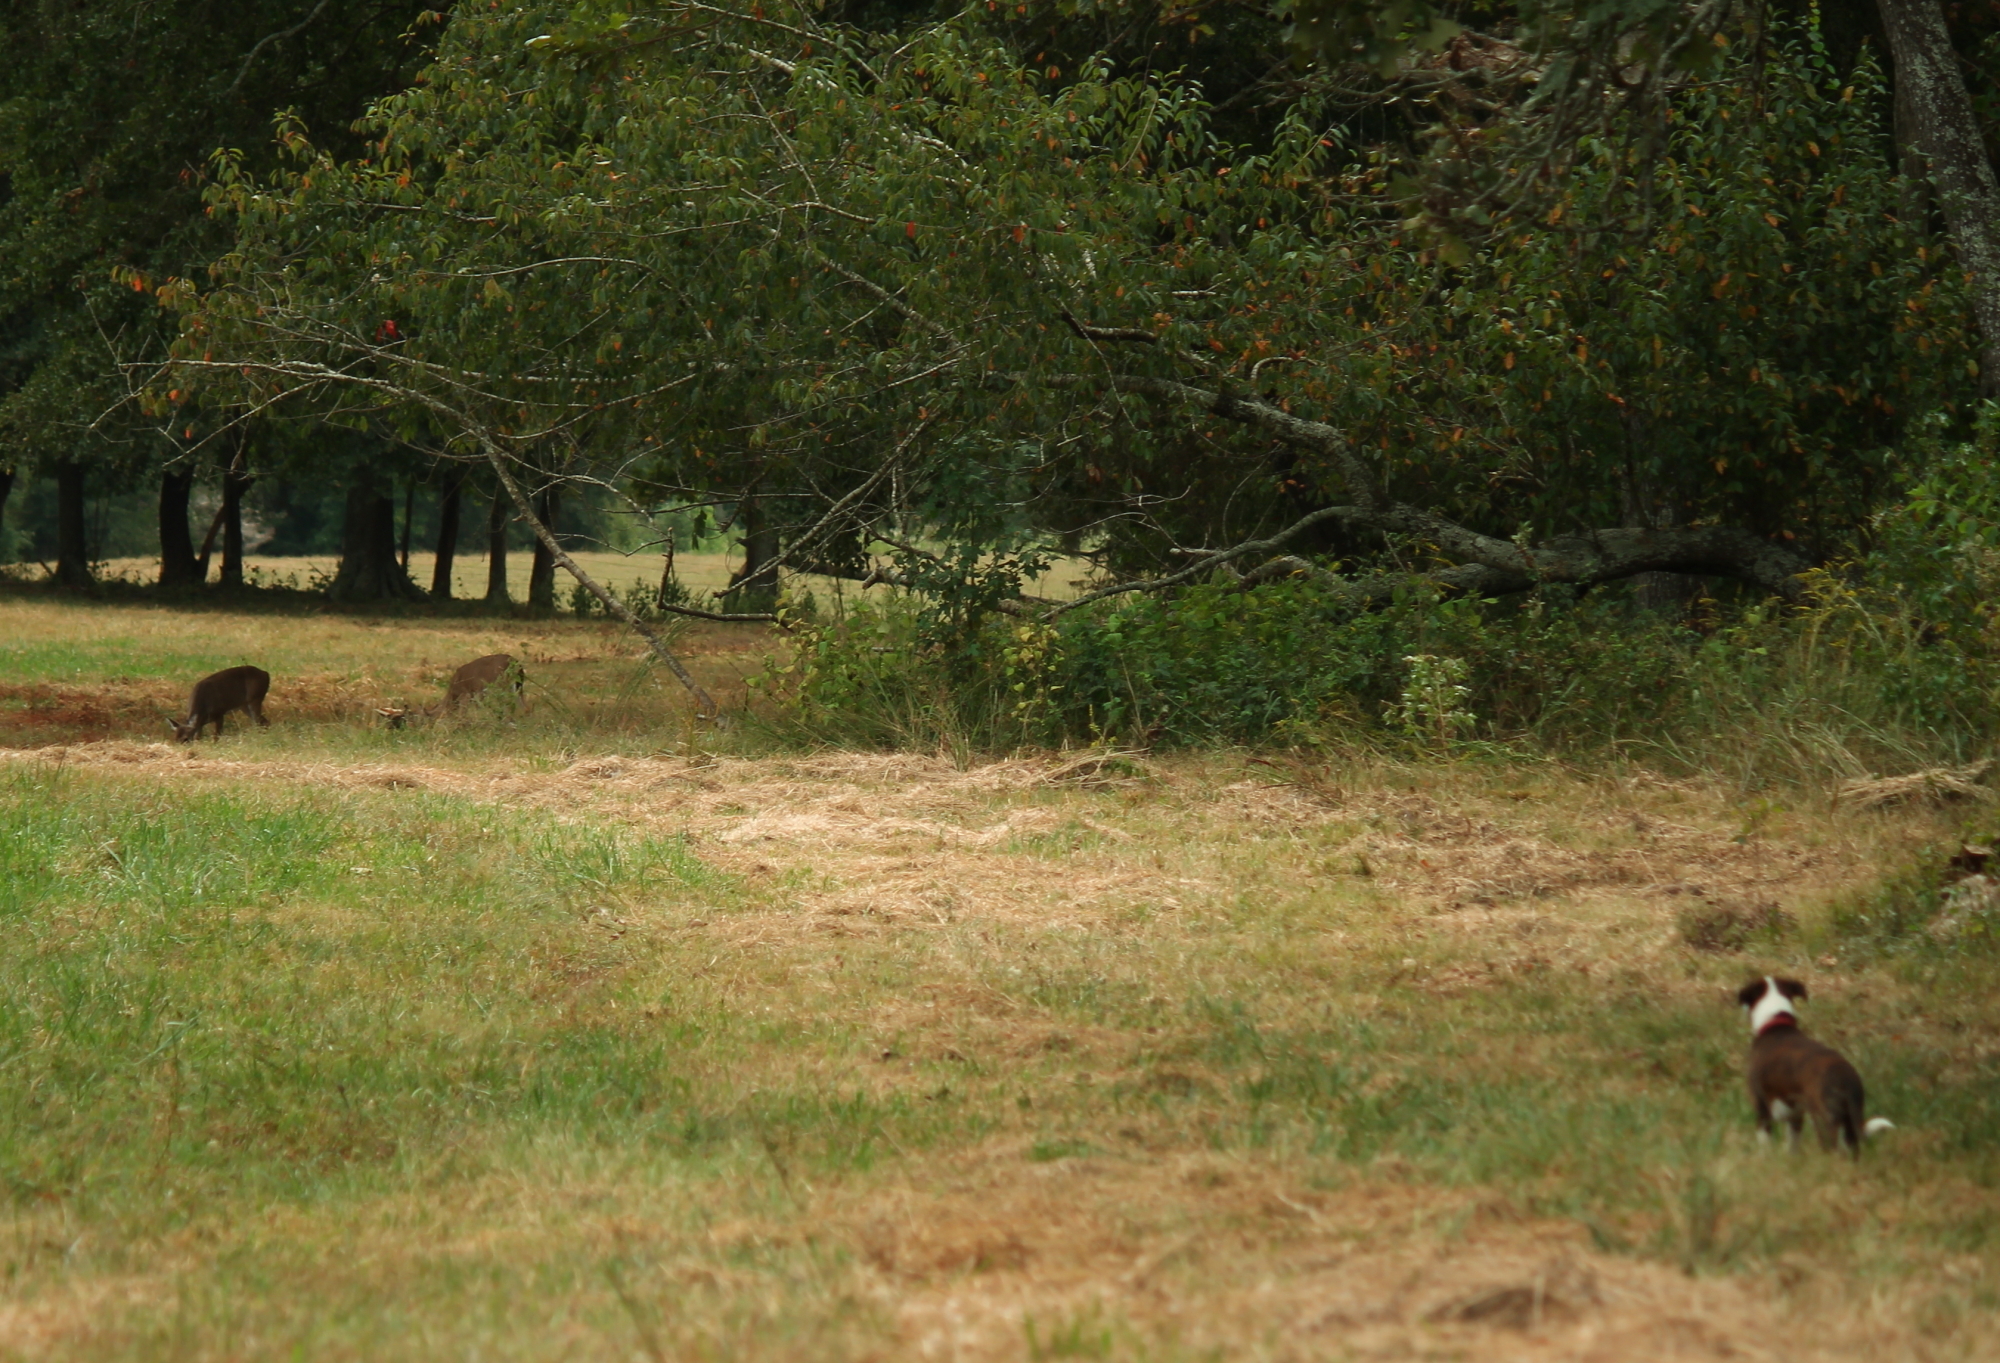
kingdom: Animalia
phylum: Chordata
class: Mammalia
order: Artiodactyla
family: Cervidae
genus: Odocoileus
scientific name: Odocoileus virginianus
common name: White-tailed deer
